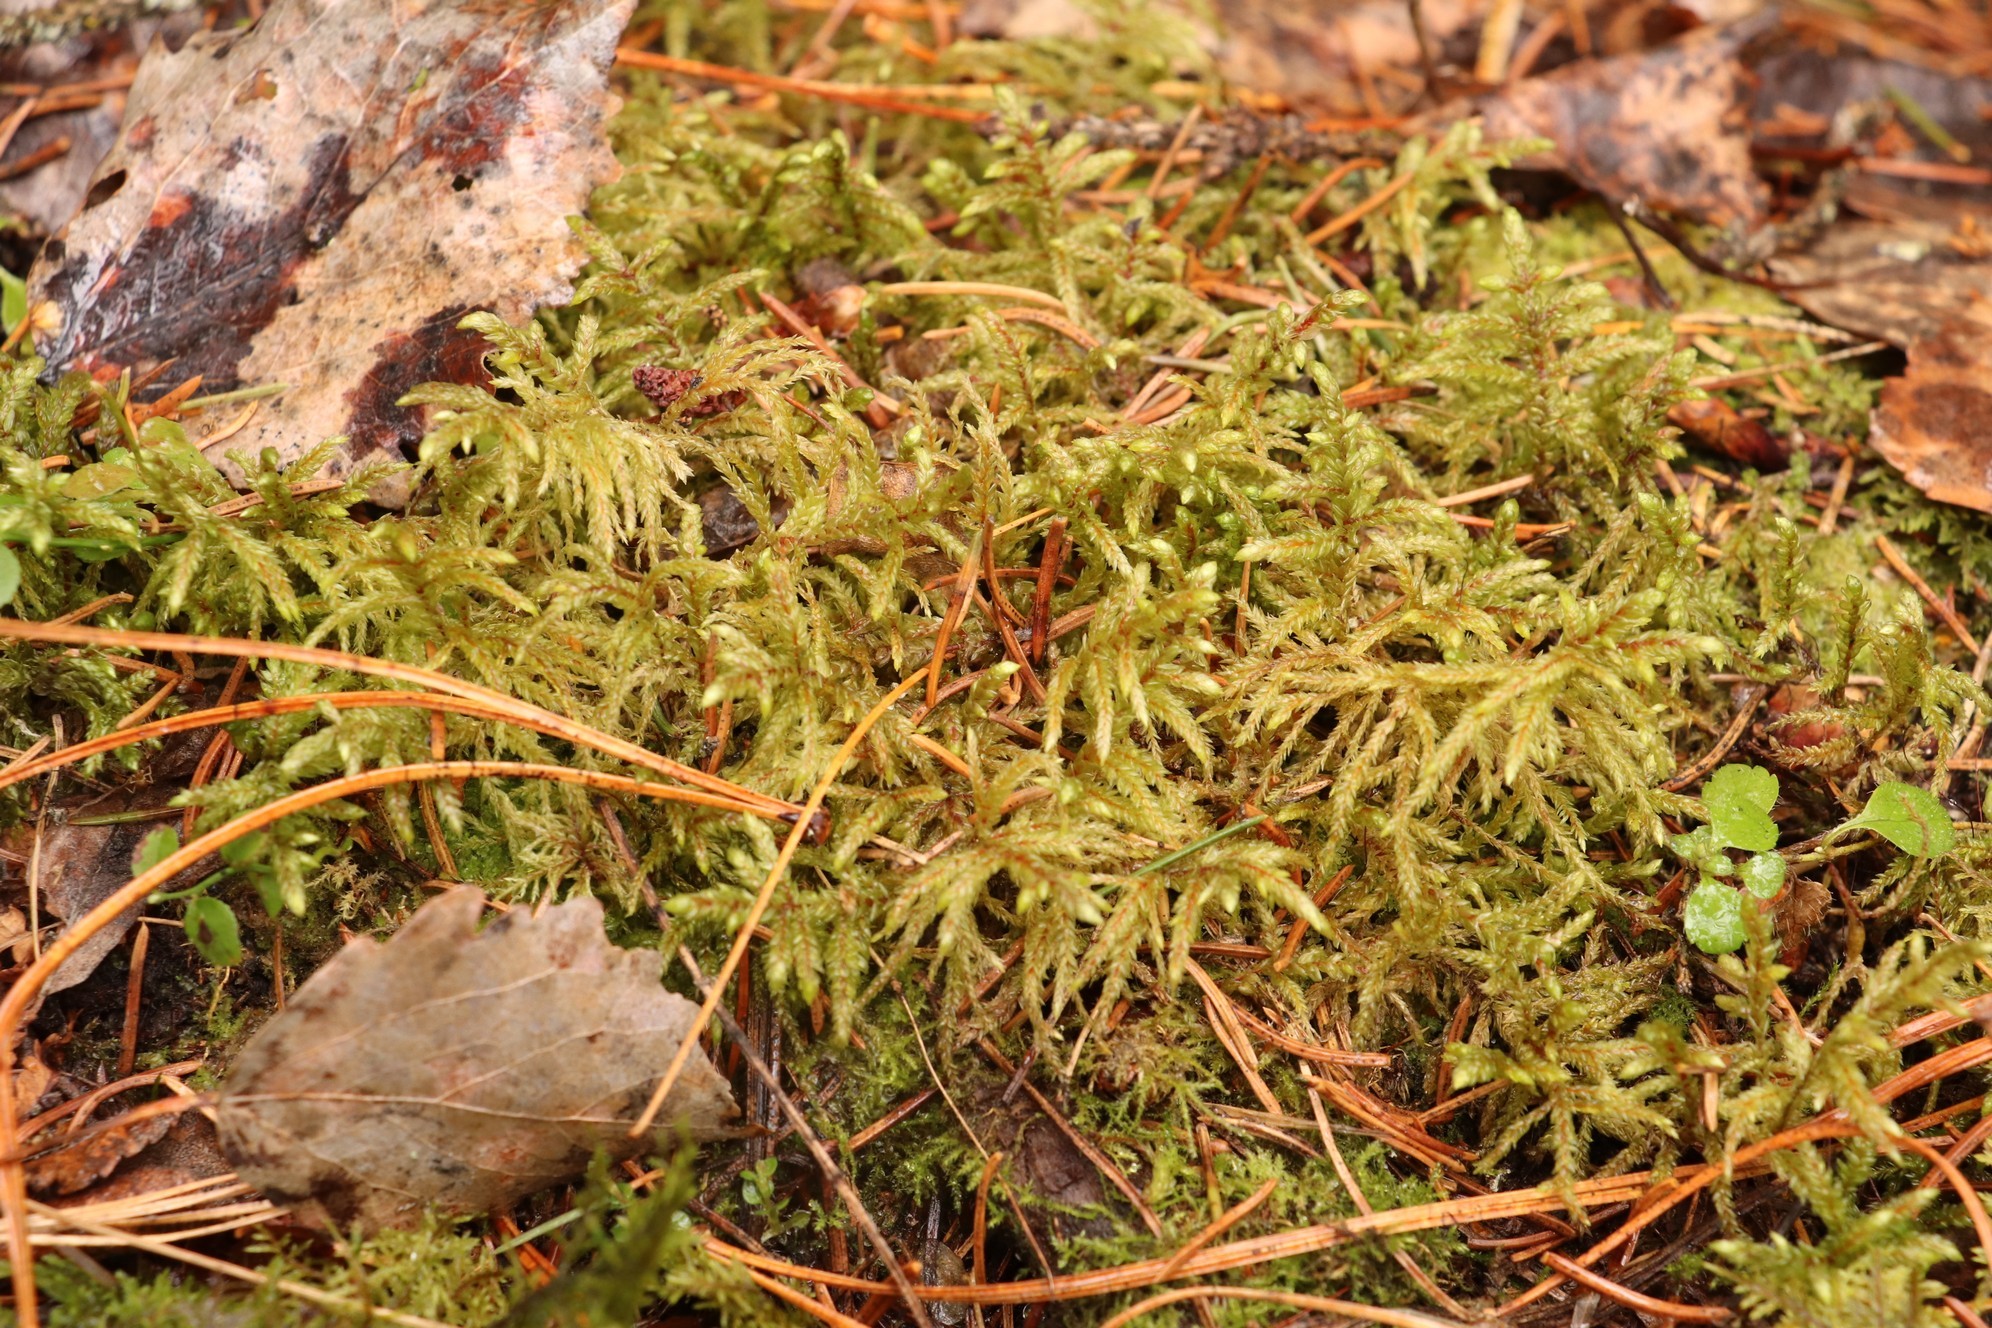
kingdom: Plantae
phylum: Bryophyta
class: Bryopsida
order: Hypnales
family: Hylocomiaceae
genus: Pleurozium
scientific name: Pleurozium schreberi
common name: Red-stemmed feather moss
